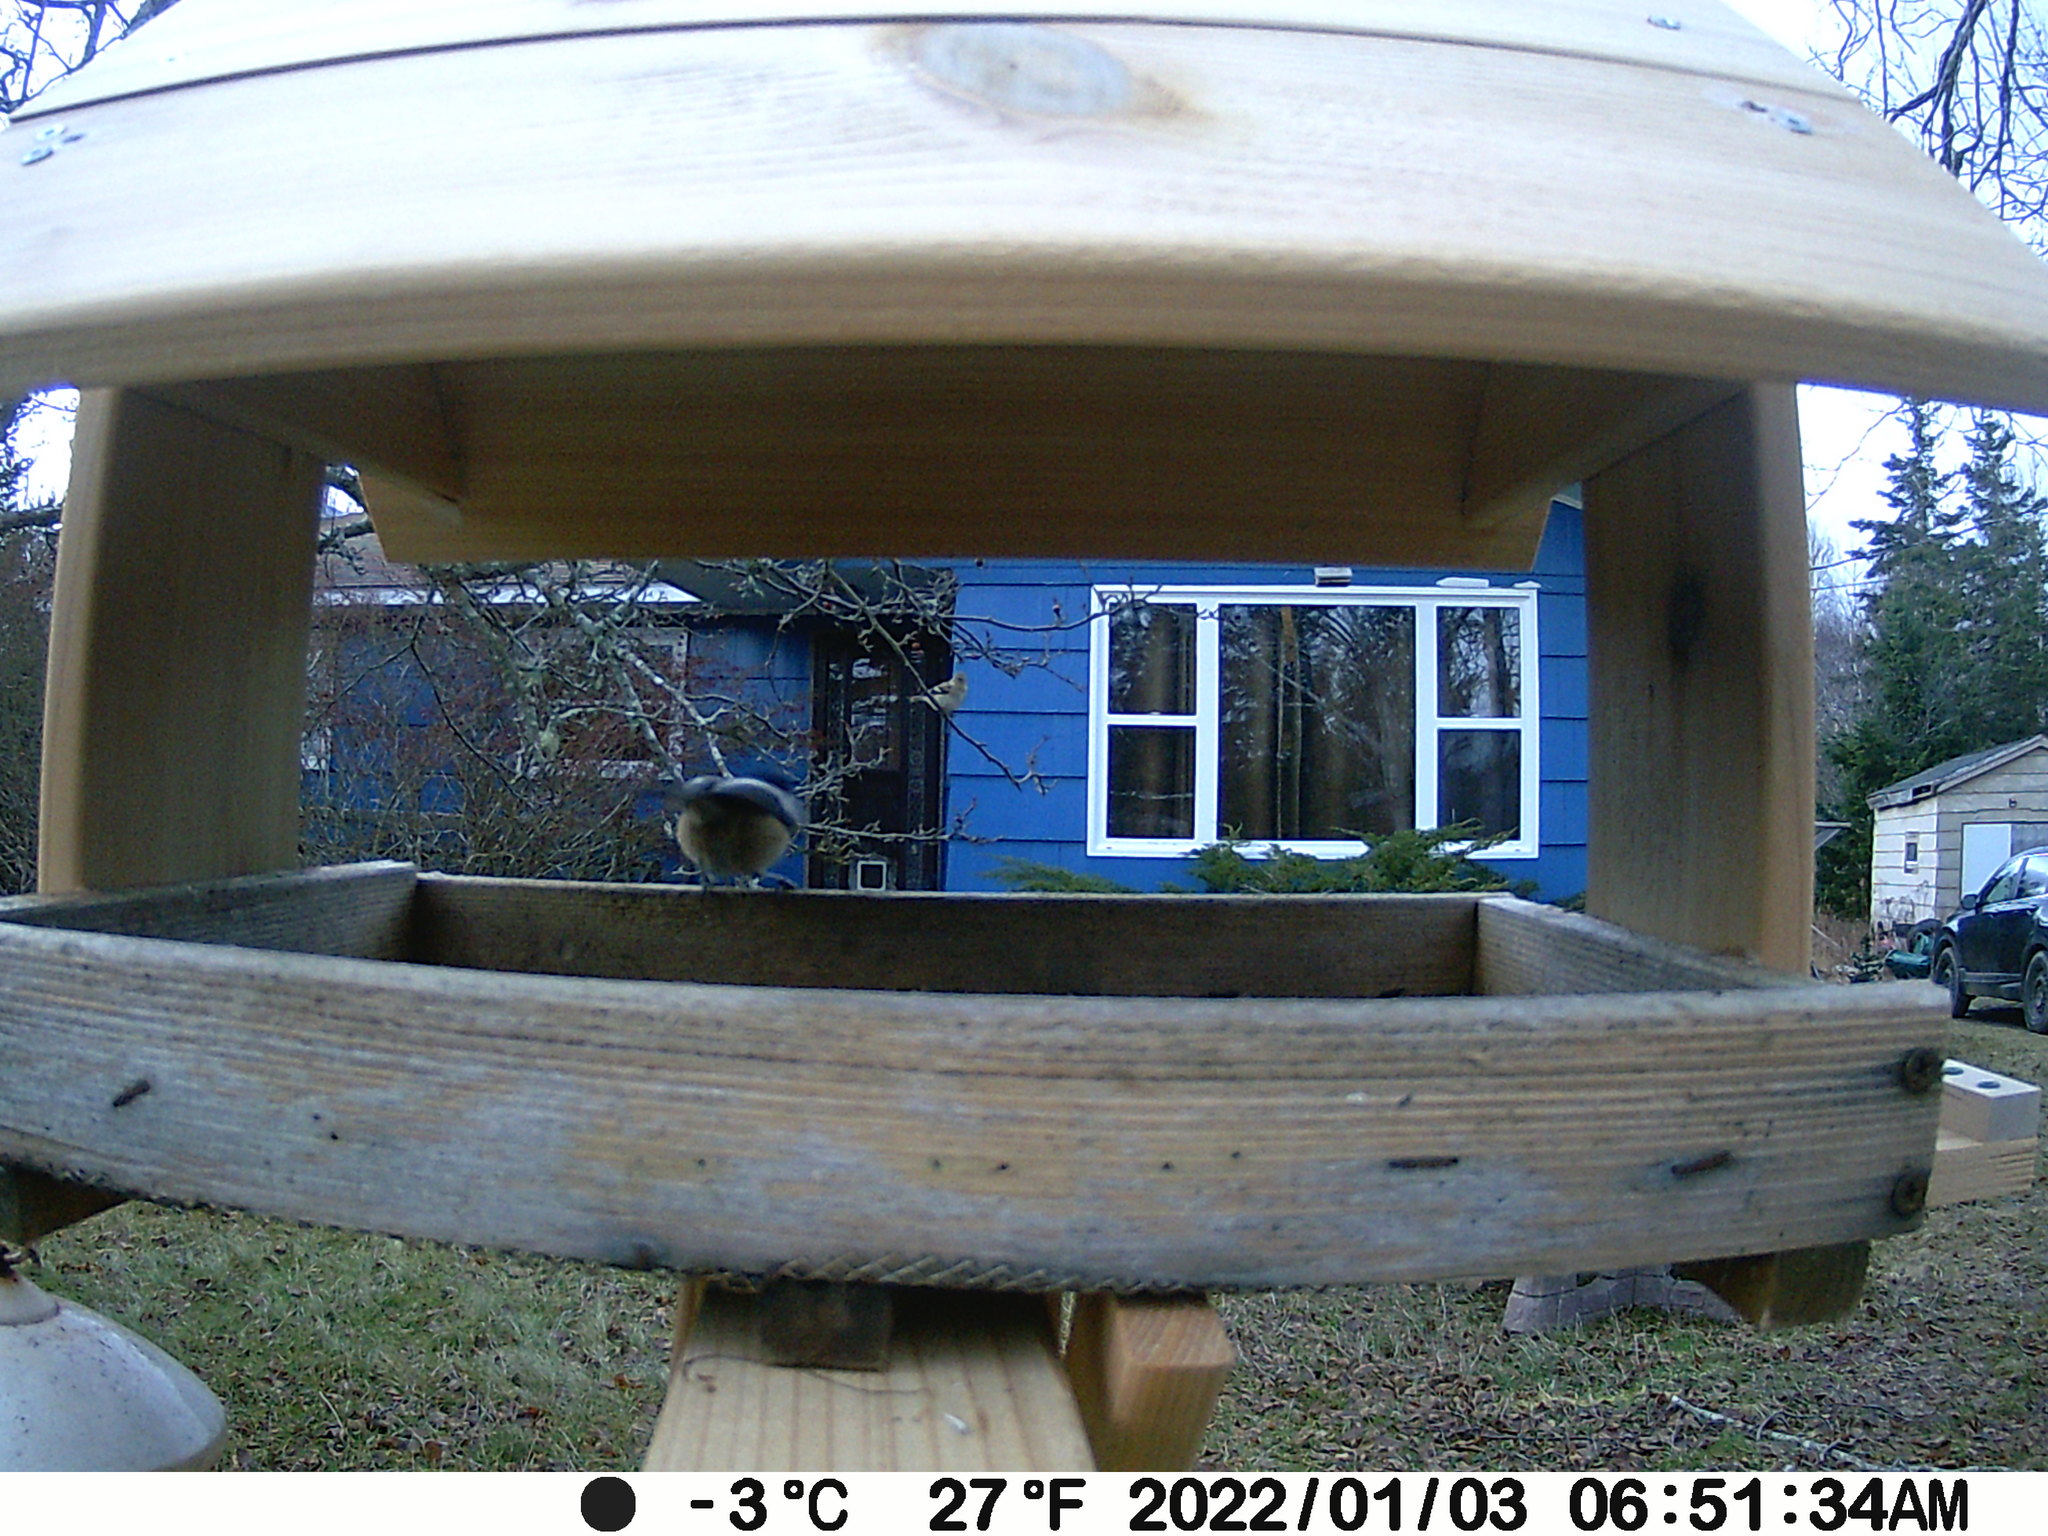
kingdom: Animalia
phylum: Chordata
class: Aves
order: Passeriformes
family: Fringillidae
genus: Spinus
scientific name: Spinus tristis
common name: American goldfinch
